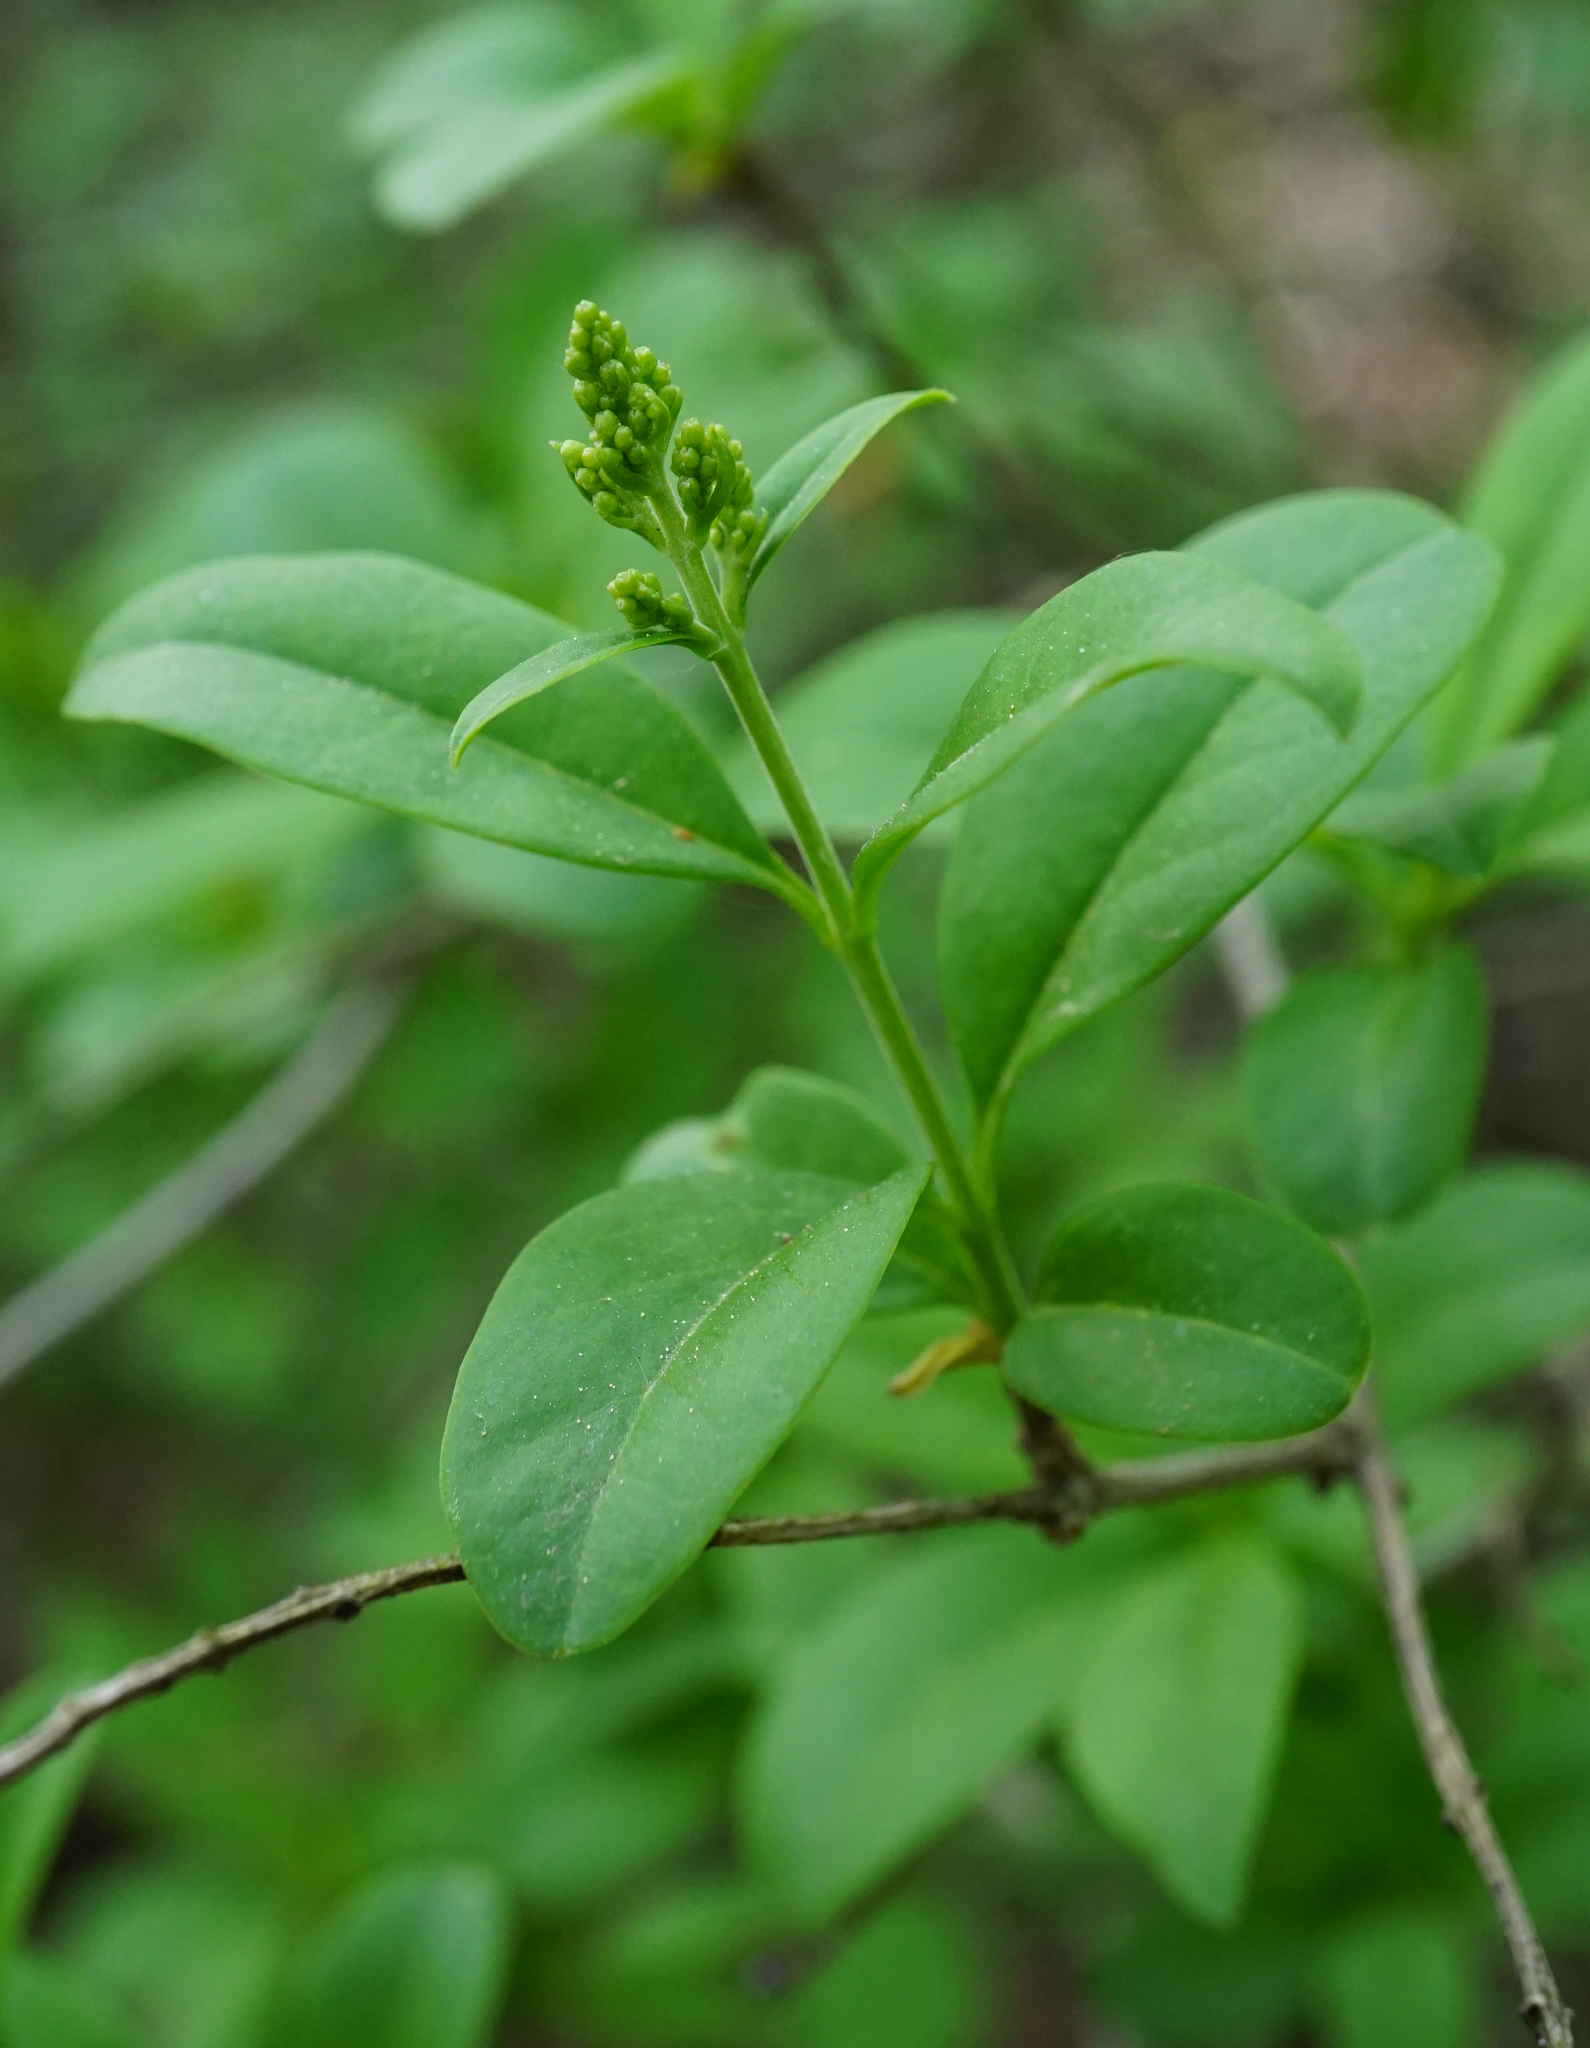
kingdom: Plantae
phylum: Tracheophyta
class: Magnoliopsida
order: Lamiales
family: Oleaceae
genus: Ligustrum
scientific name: Ligustrum vulgare
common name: Wild privet
